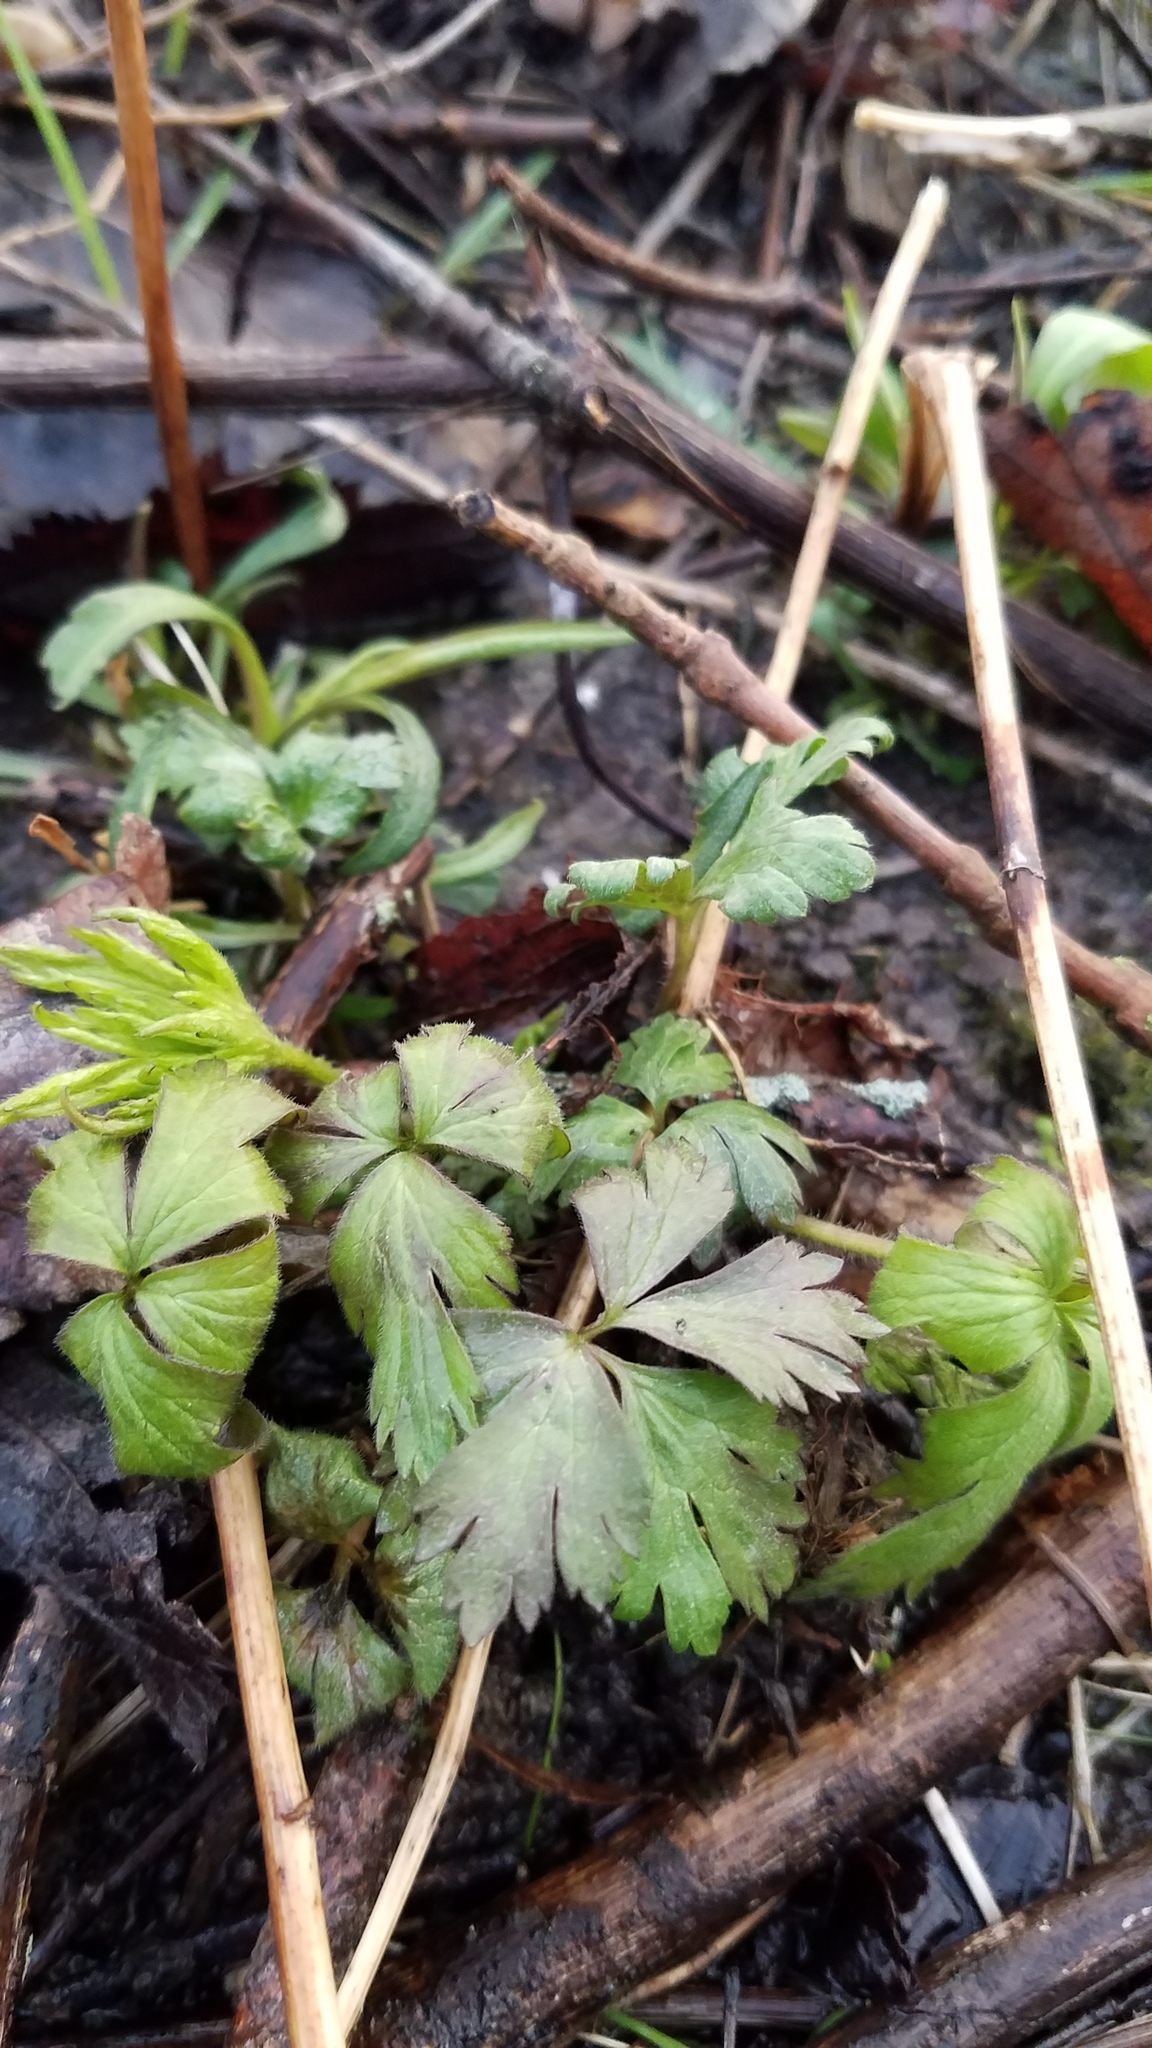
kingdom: Plantae
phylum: Tracheophyta
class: Magnoliopsida
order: Ranunculales
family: Ranunculaceae
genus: Anemone
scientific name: Anemone quinquefolia
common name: Wood anemone
